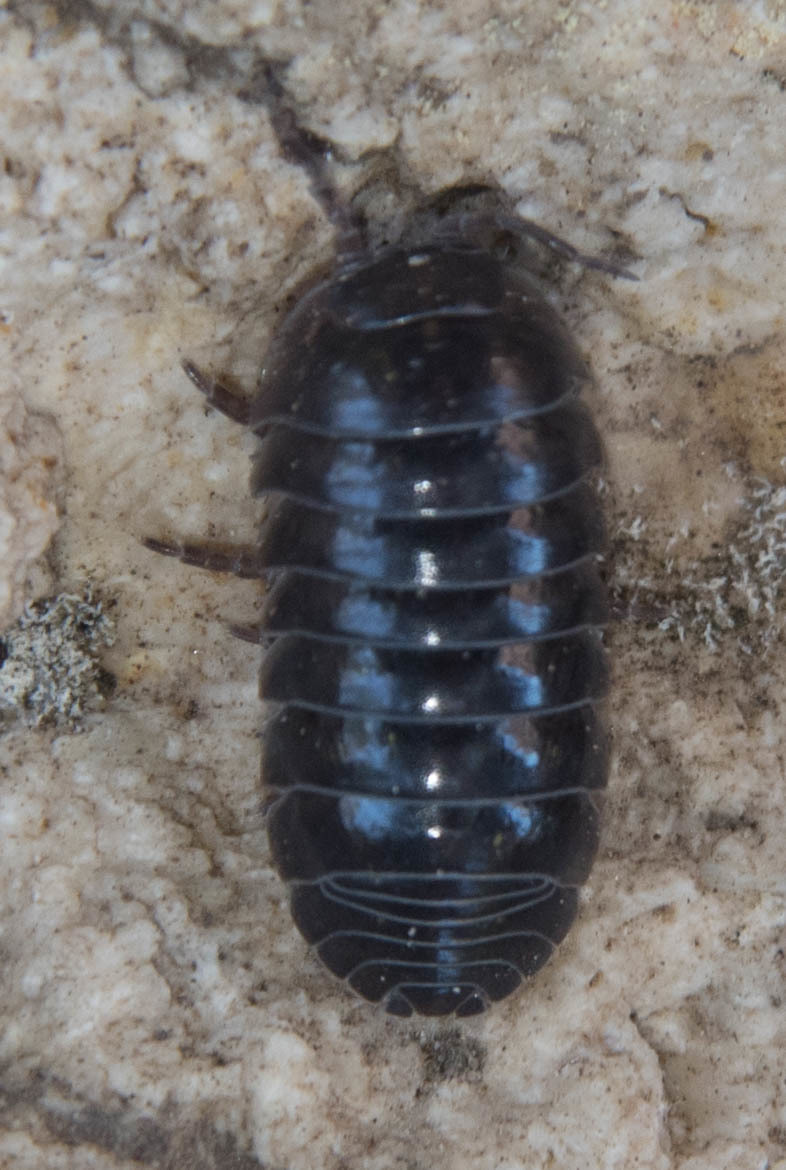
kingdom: Animalia
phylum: Arthropoda
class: Malacostraca
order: Isopoda
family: Armadillidiidae
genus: Armadillidium
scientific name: Armadillidium vulgare
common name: Common pill woodlouse
